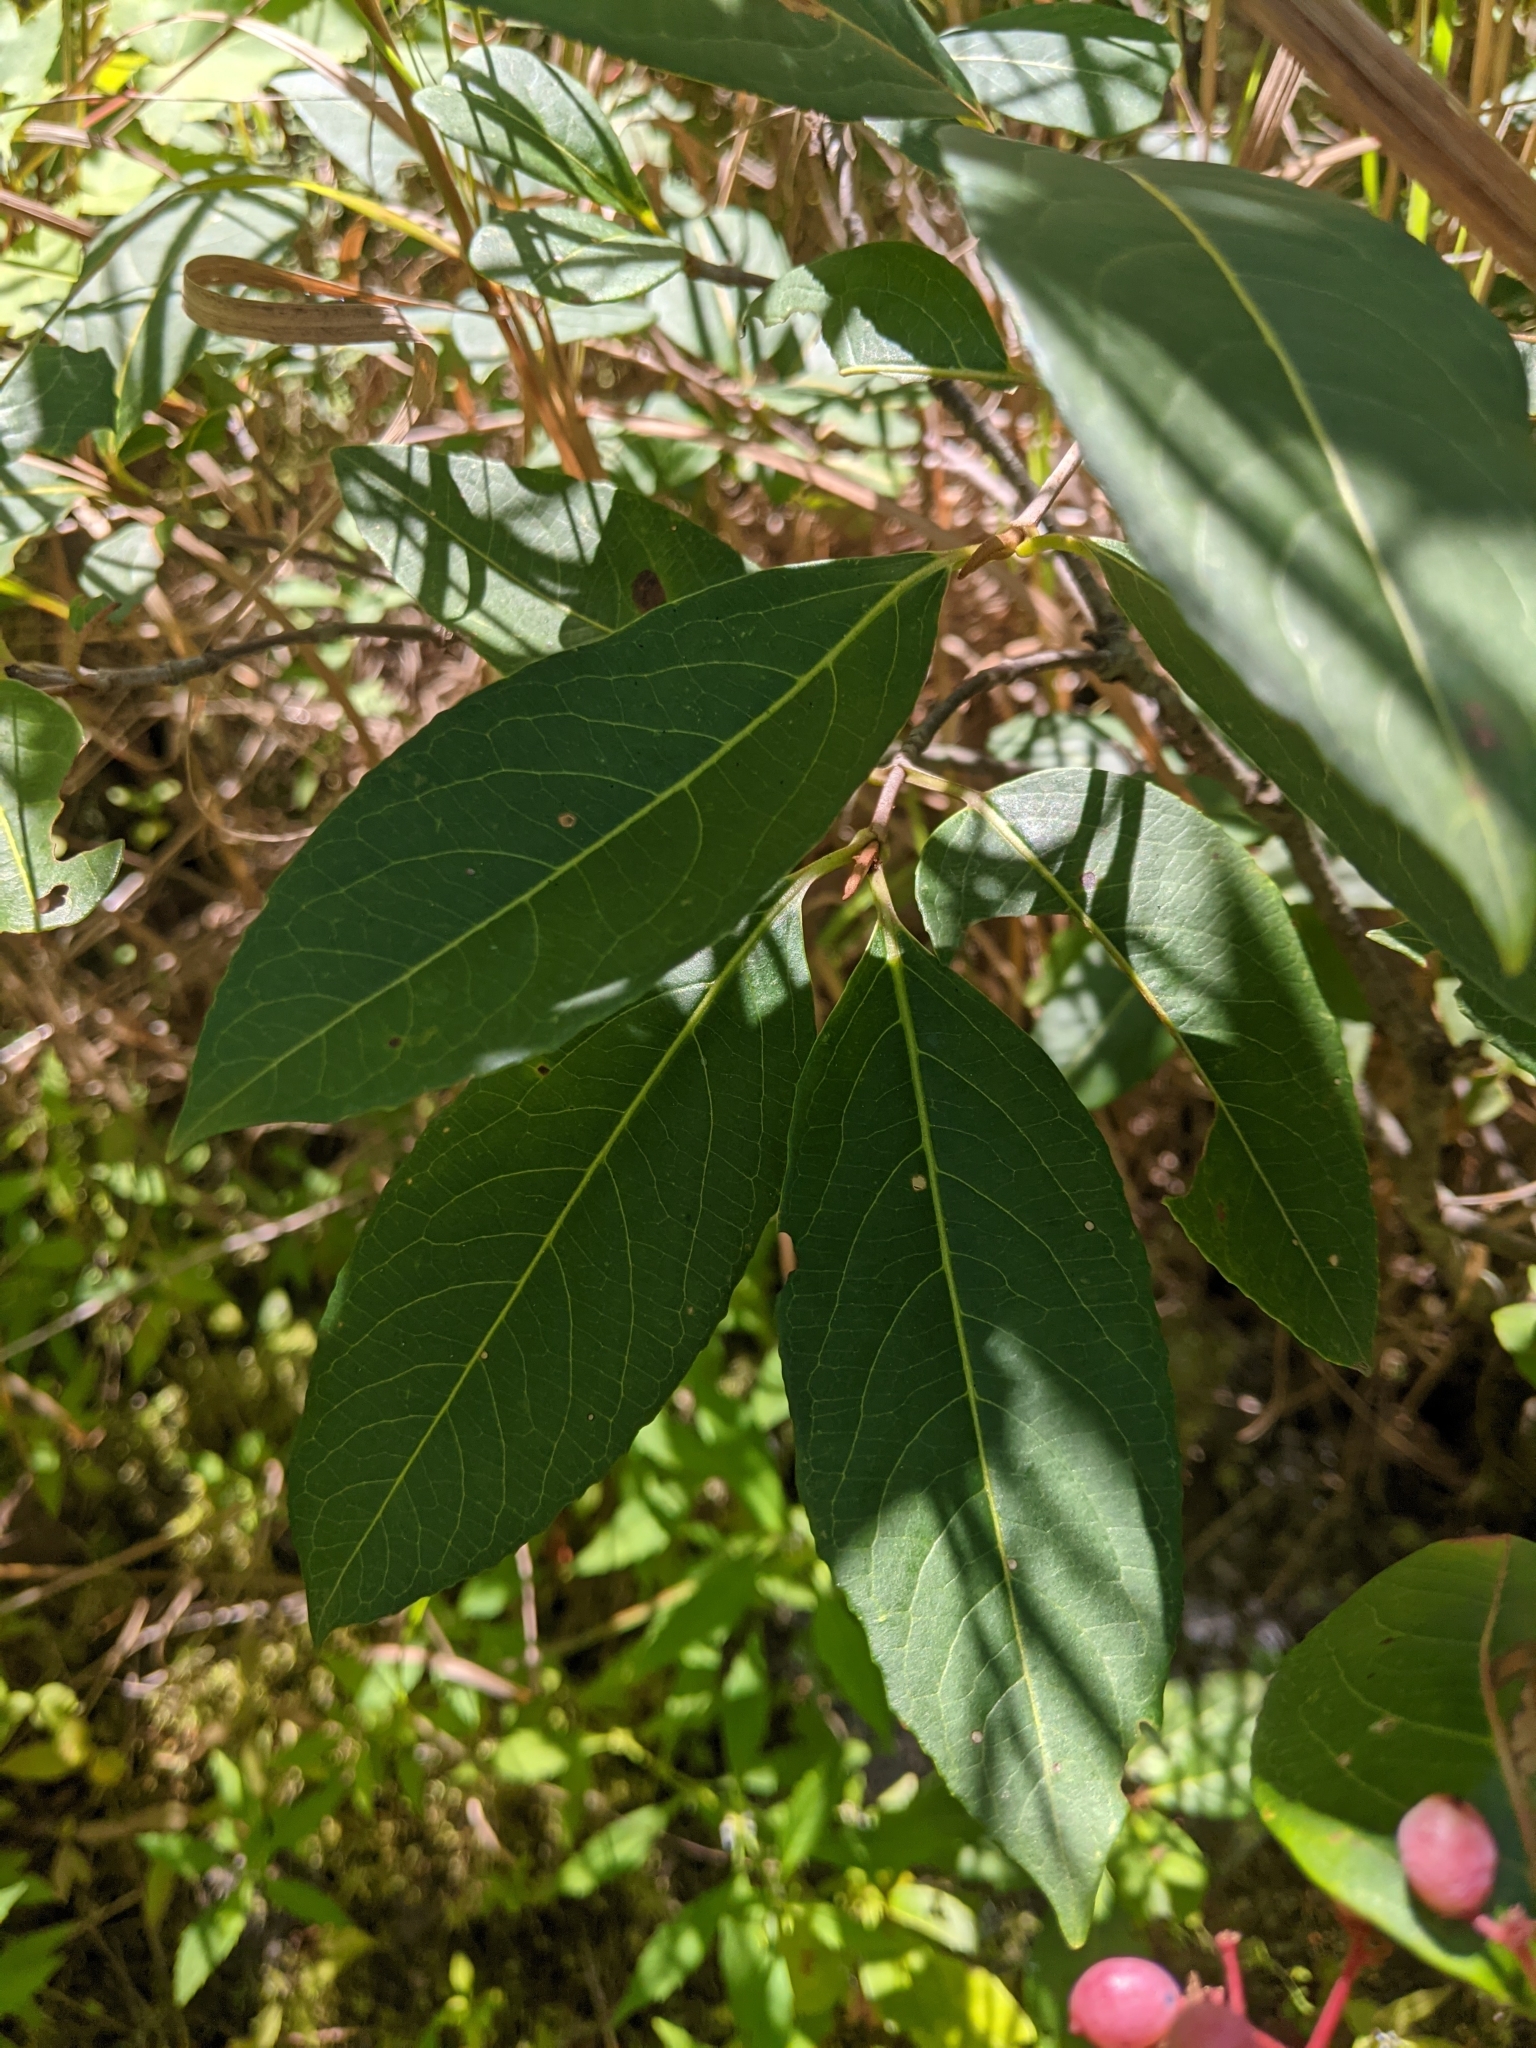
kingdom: Plantae
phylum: Tracheophyta
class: Magnoliopsida
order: Dipsacales
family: Viburnaceae
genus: Viburnum
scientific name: Viburnum cassinoides
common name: Swamp haw
